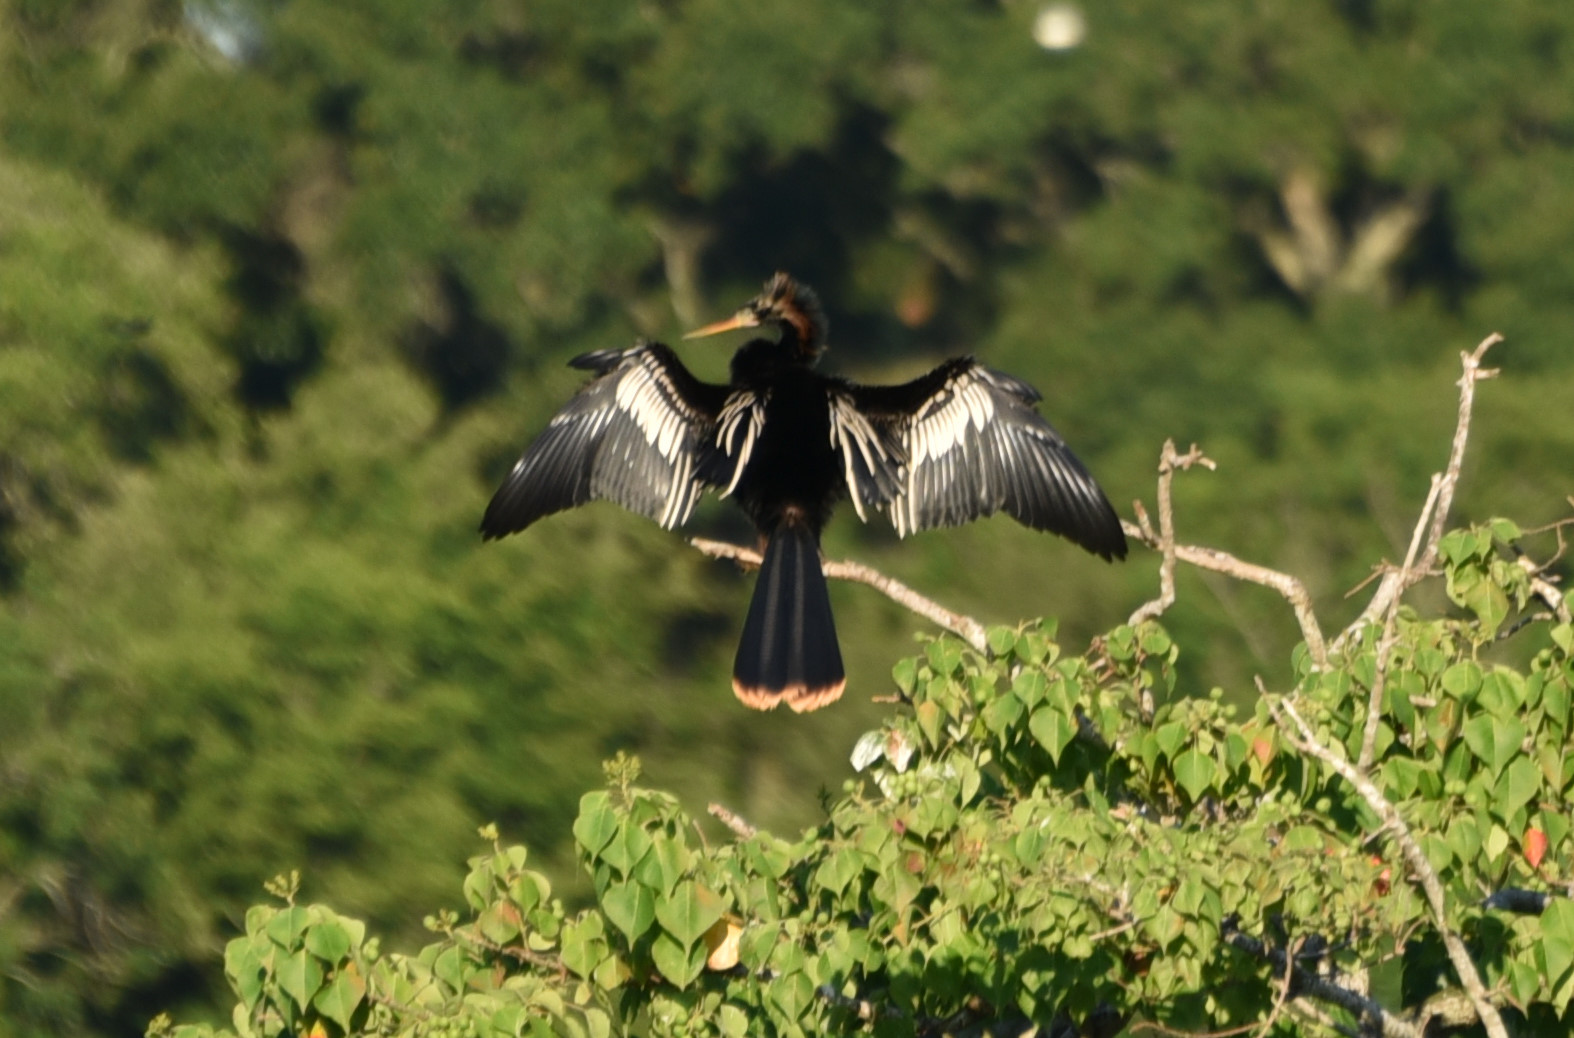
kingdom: Animalia
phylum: Chordata
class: Aves
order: Suliformes
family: Anhingidae
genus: Anhinga
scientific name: Anhinga anhinga
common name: Anhinga
